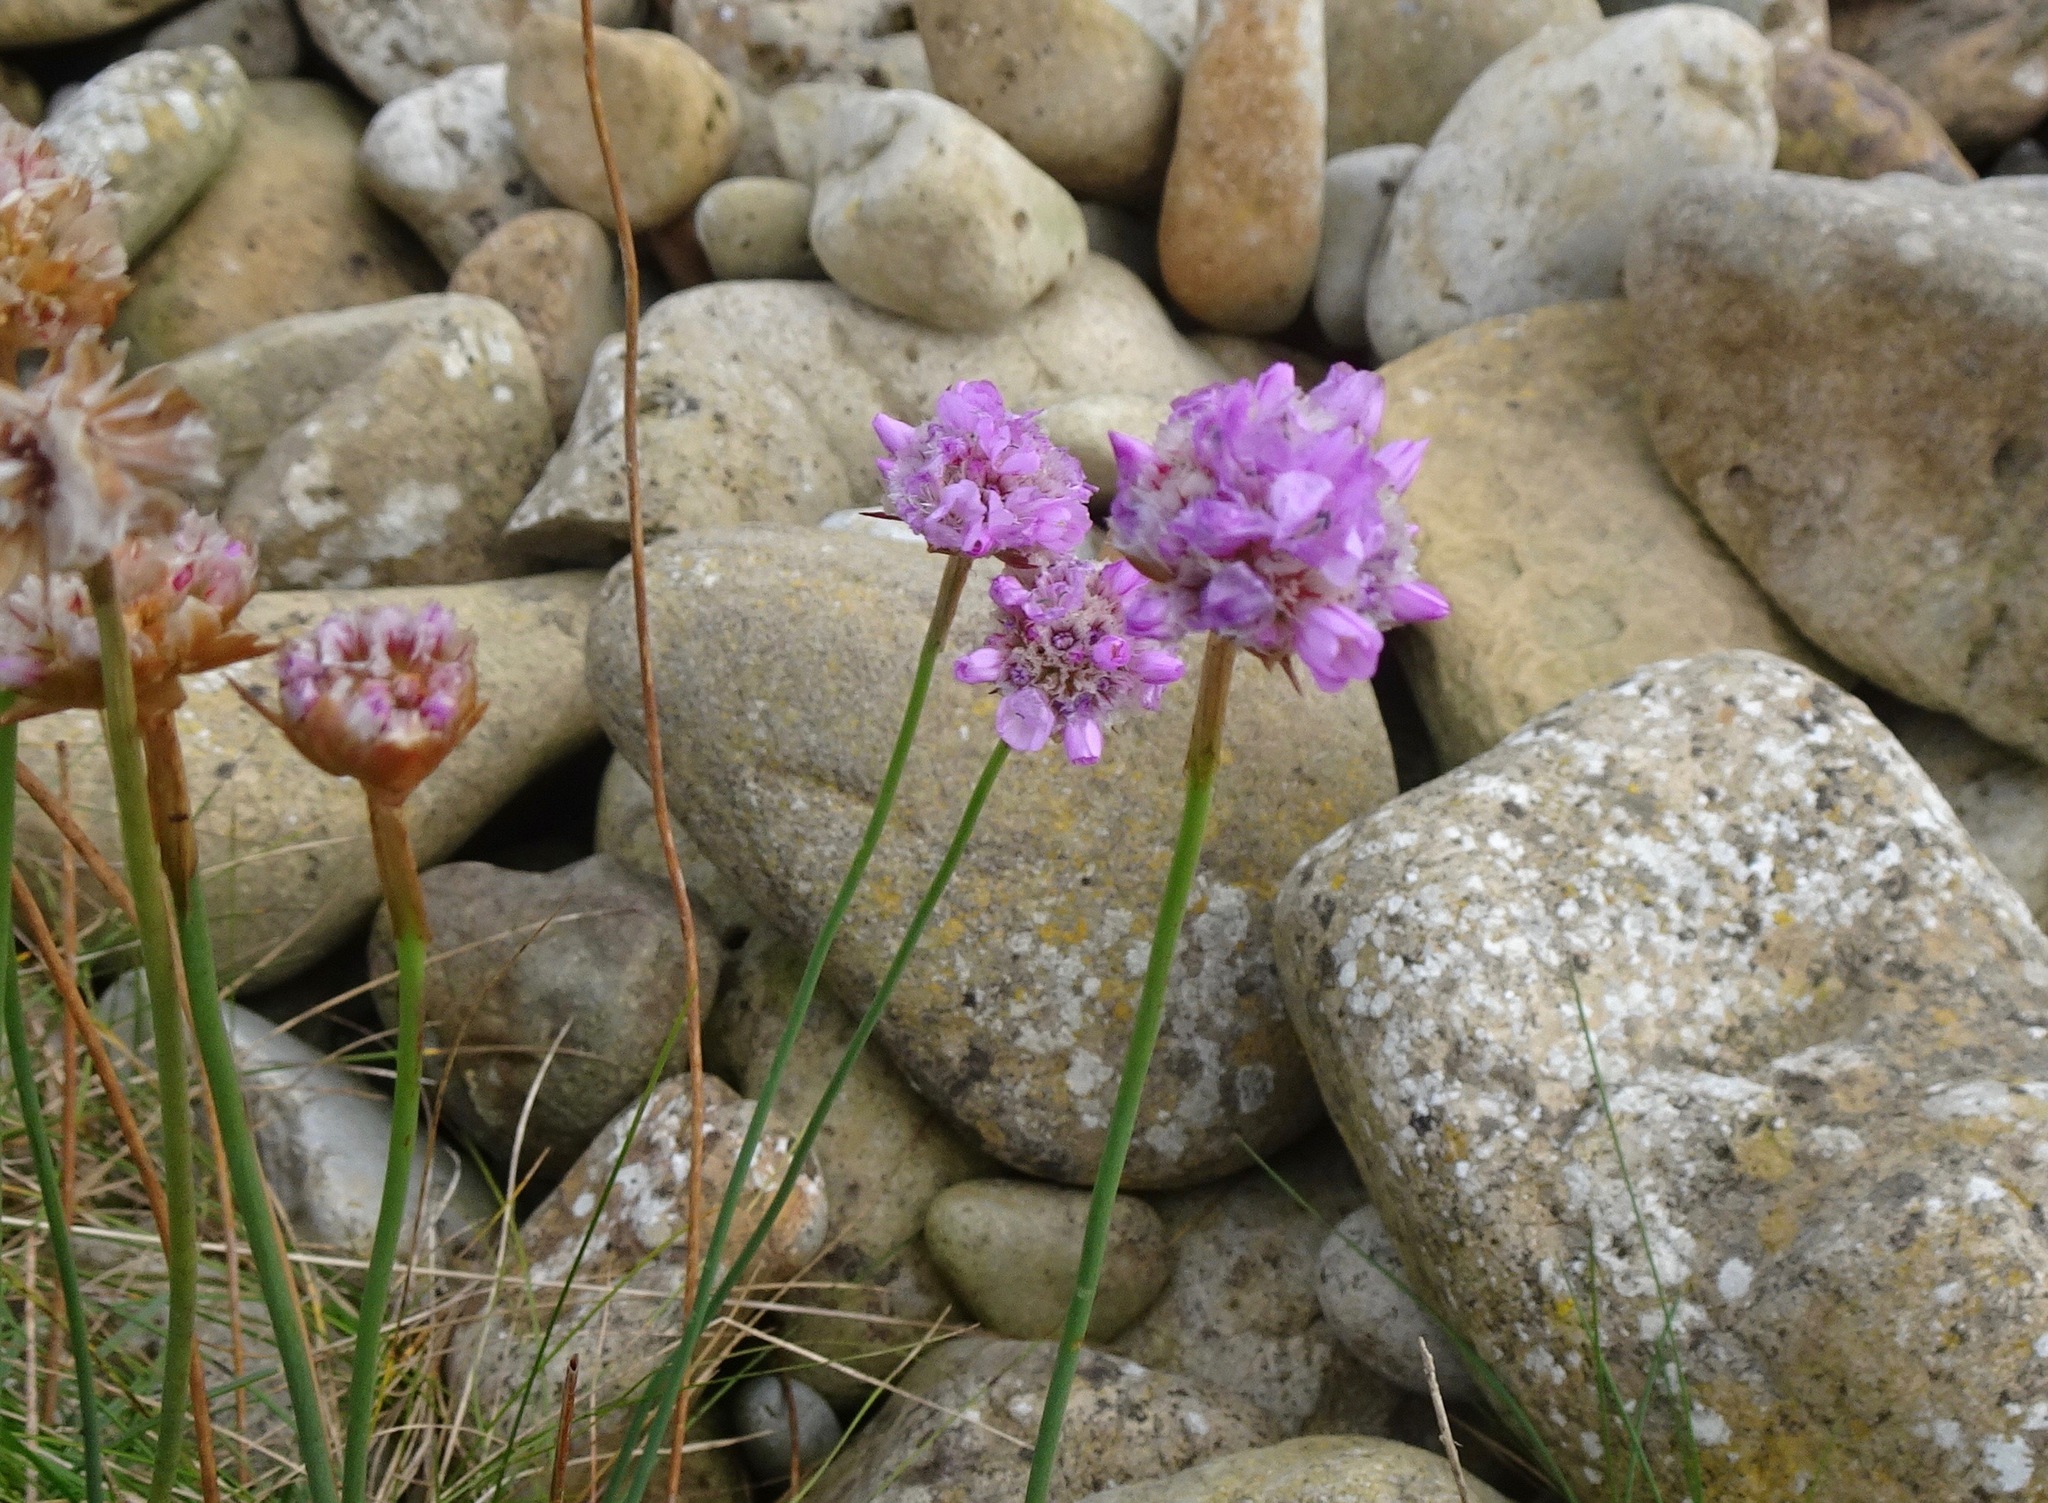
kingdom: Plantae
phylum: Tracheophyta
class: Magnoliopsida
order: Caryophyllales
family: Plumbaginaceae
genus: Armeria
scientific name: Armeria maritima
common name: Thrift
